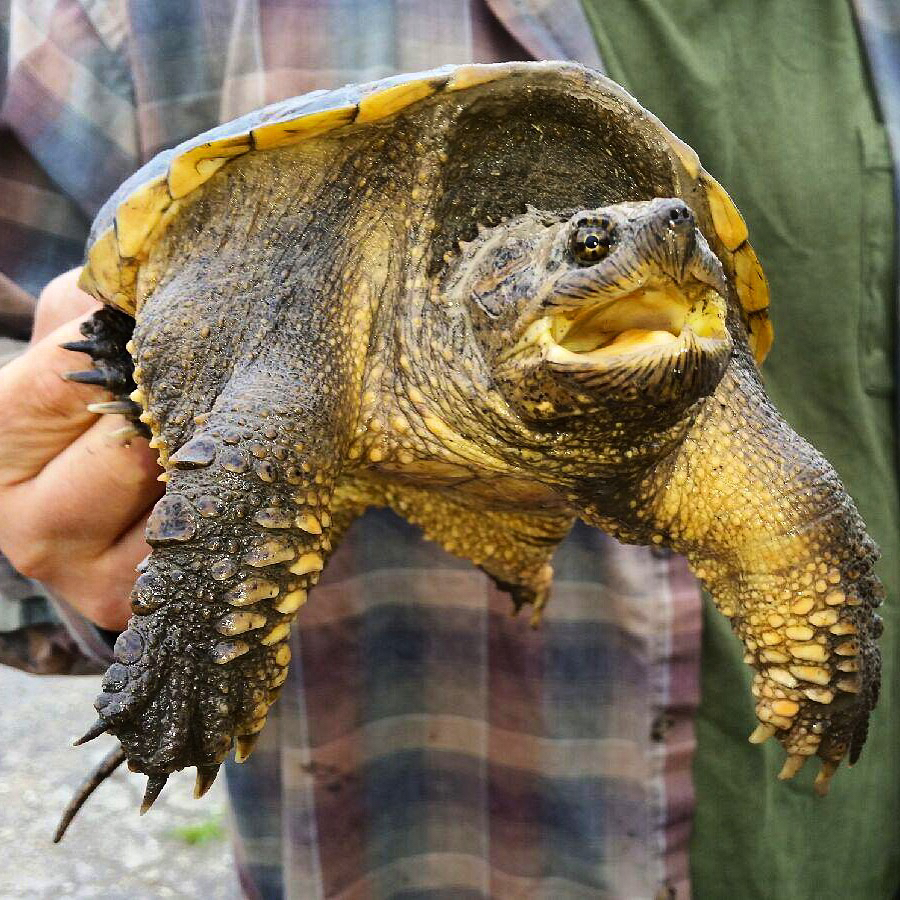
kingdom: Animalia
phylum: Chordata
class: Testudines
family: Chelydridae
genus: Chelydra
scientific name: Chelydra serpentina
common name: Common snapping turtle
